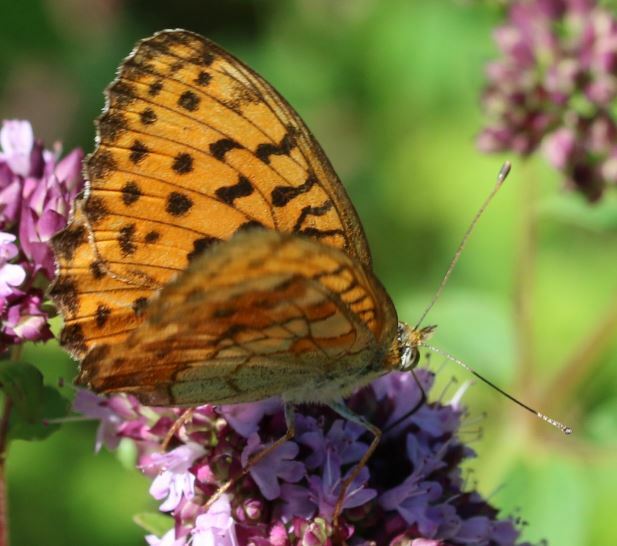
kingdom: Animalia
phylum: Arthropoda
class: Insecta
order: Lepidoptera
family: Nymphalidae
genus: Brenthis
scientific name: Brenthis daphne
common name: Marbled fritillary
